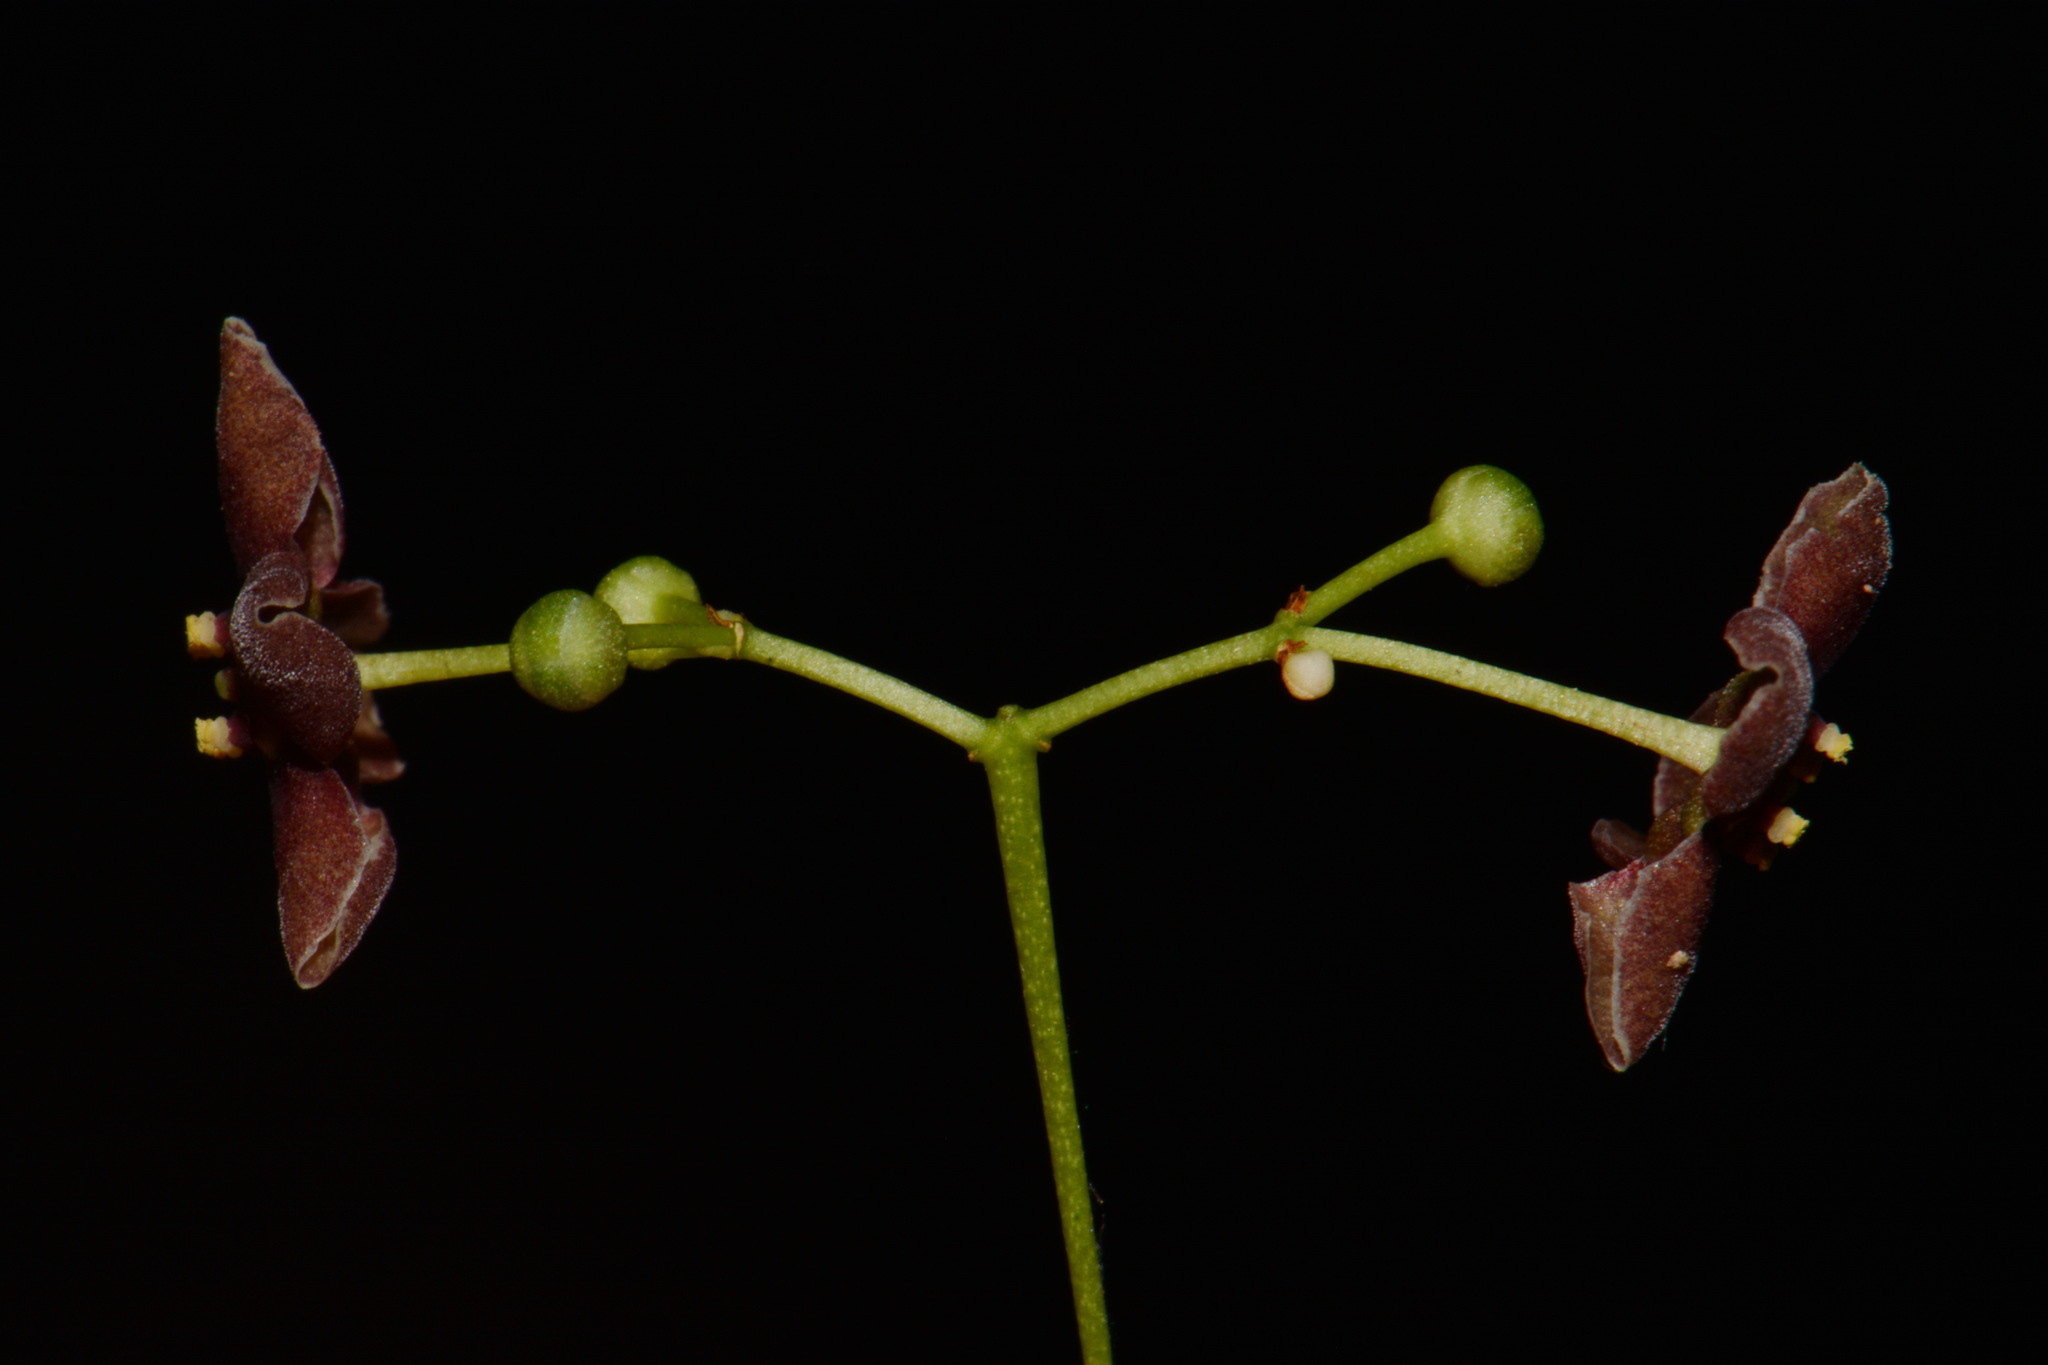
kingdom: Plantae
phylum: Tracheophyta
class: Magnoliopsida
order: Celastrales
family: Celastraceae
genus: Euonymus
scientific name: Euonymus atropurpureus
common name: Eastern wahoo
